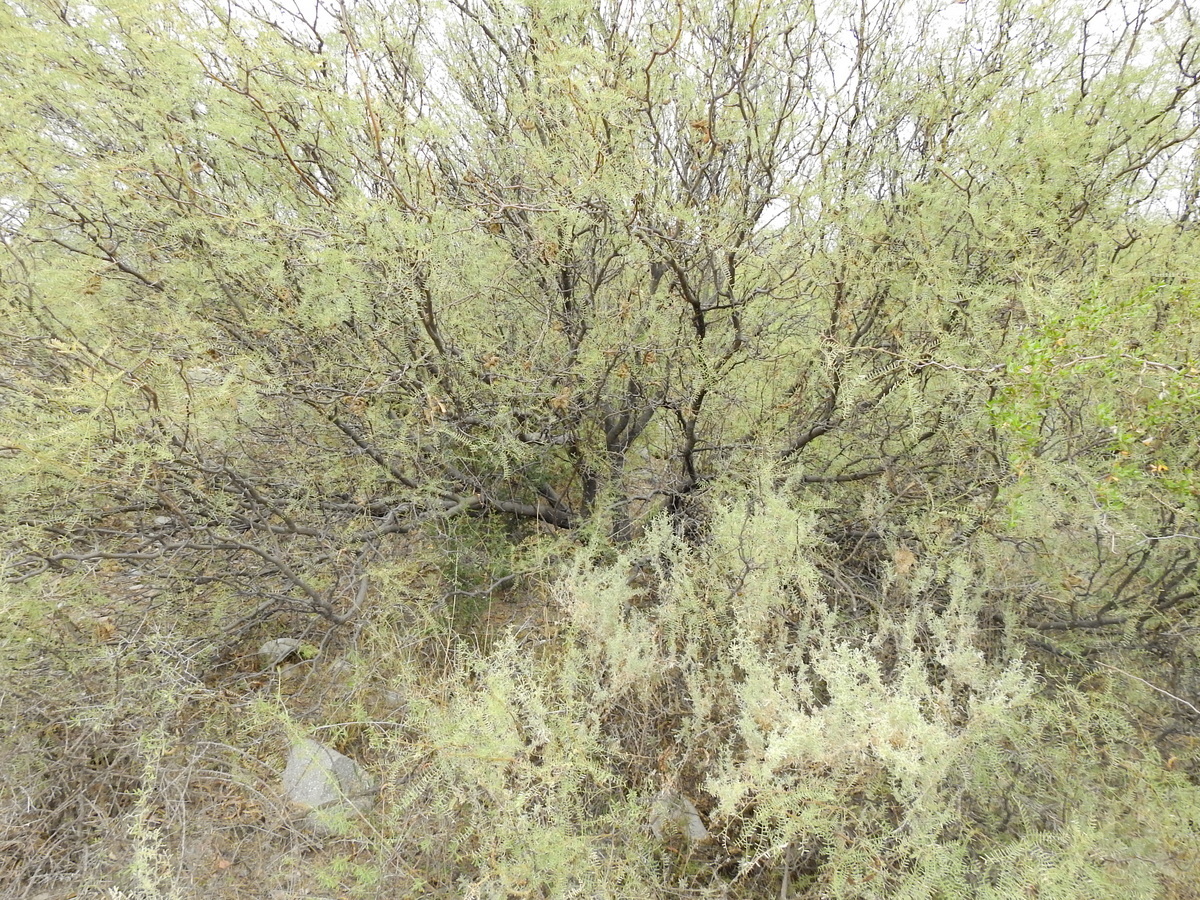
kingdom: Plantae
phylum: Tracheophyta
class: Magnoliopsida
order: Fabales
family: Fabaceae
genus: Prosopis
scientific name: Prosopis flexuosa
